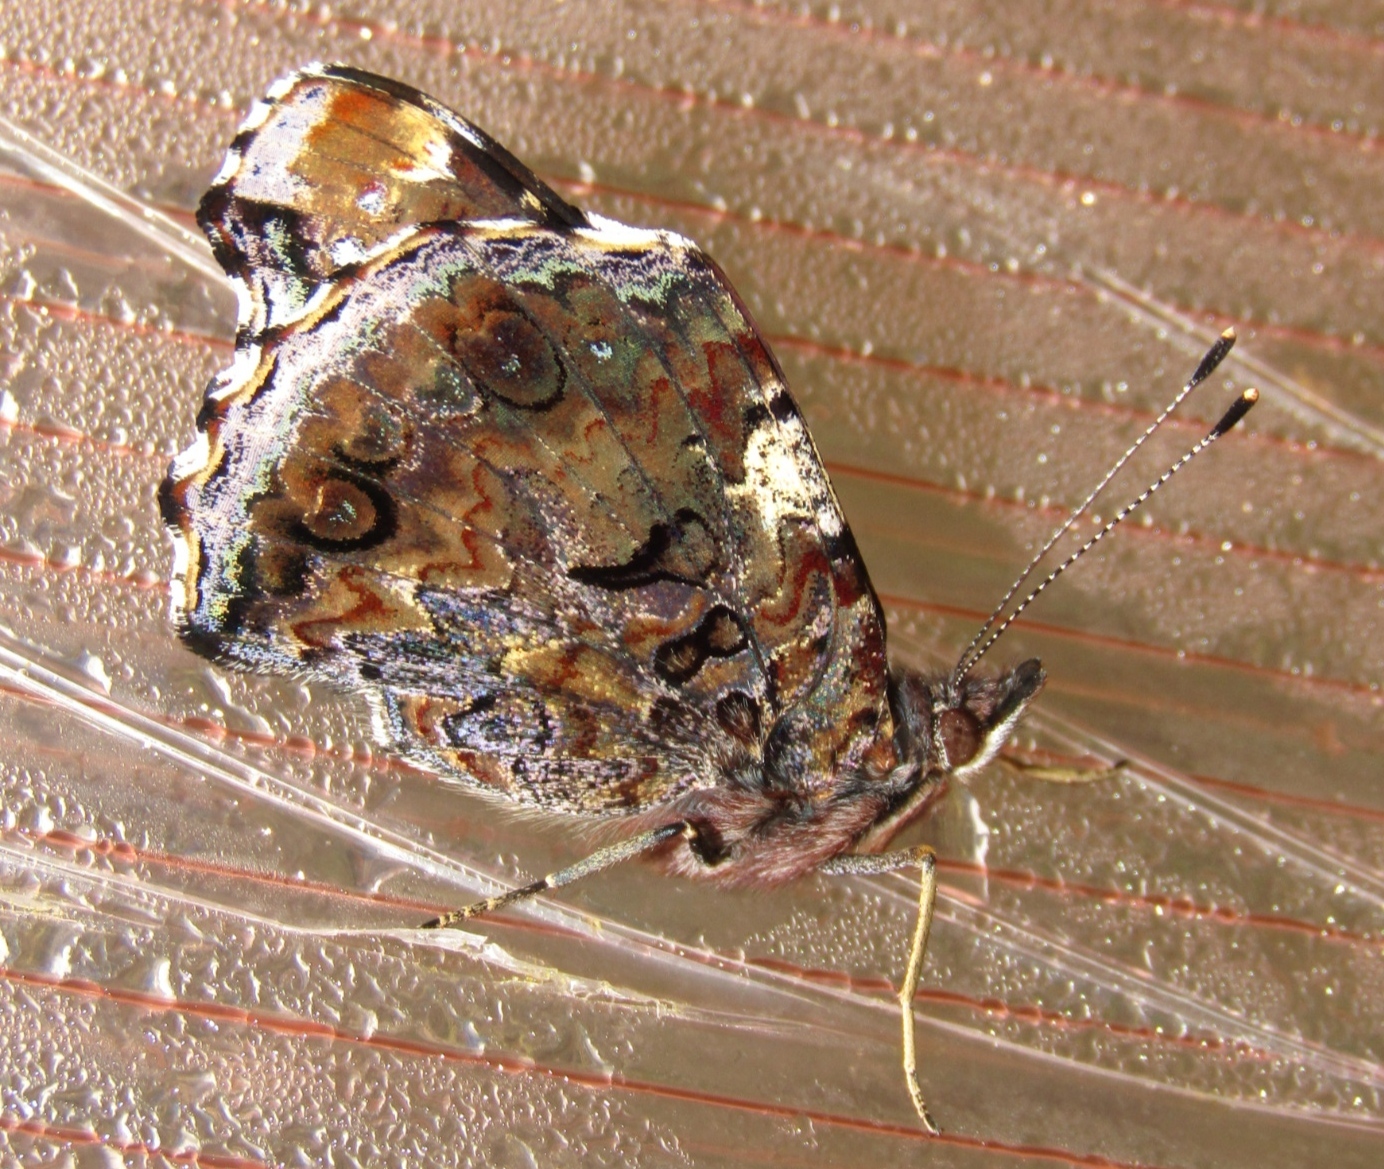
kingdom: Animalia
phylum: Arthropoda
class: Insecta
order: Lepidoptera
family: Nymphalidae
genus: Vanessa
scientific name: Vanessa atalanta
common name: Red admiral
